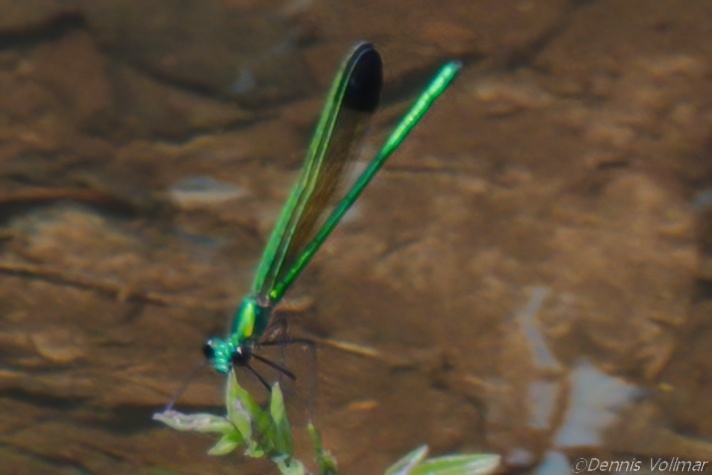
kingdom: Animalia
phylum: Arthropoda
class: Insecta
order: Odonata
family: Calopterygidae
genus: Calopteryx
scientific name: Calopteryx dimidiata
